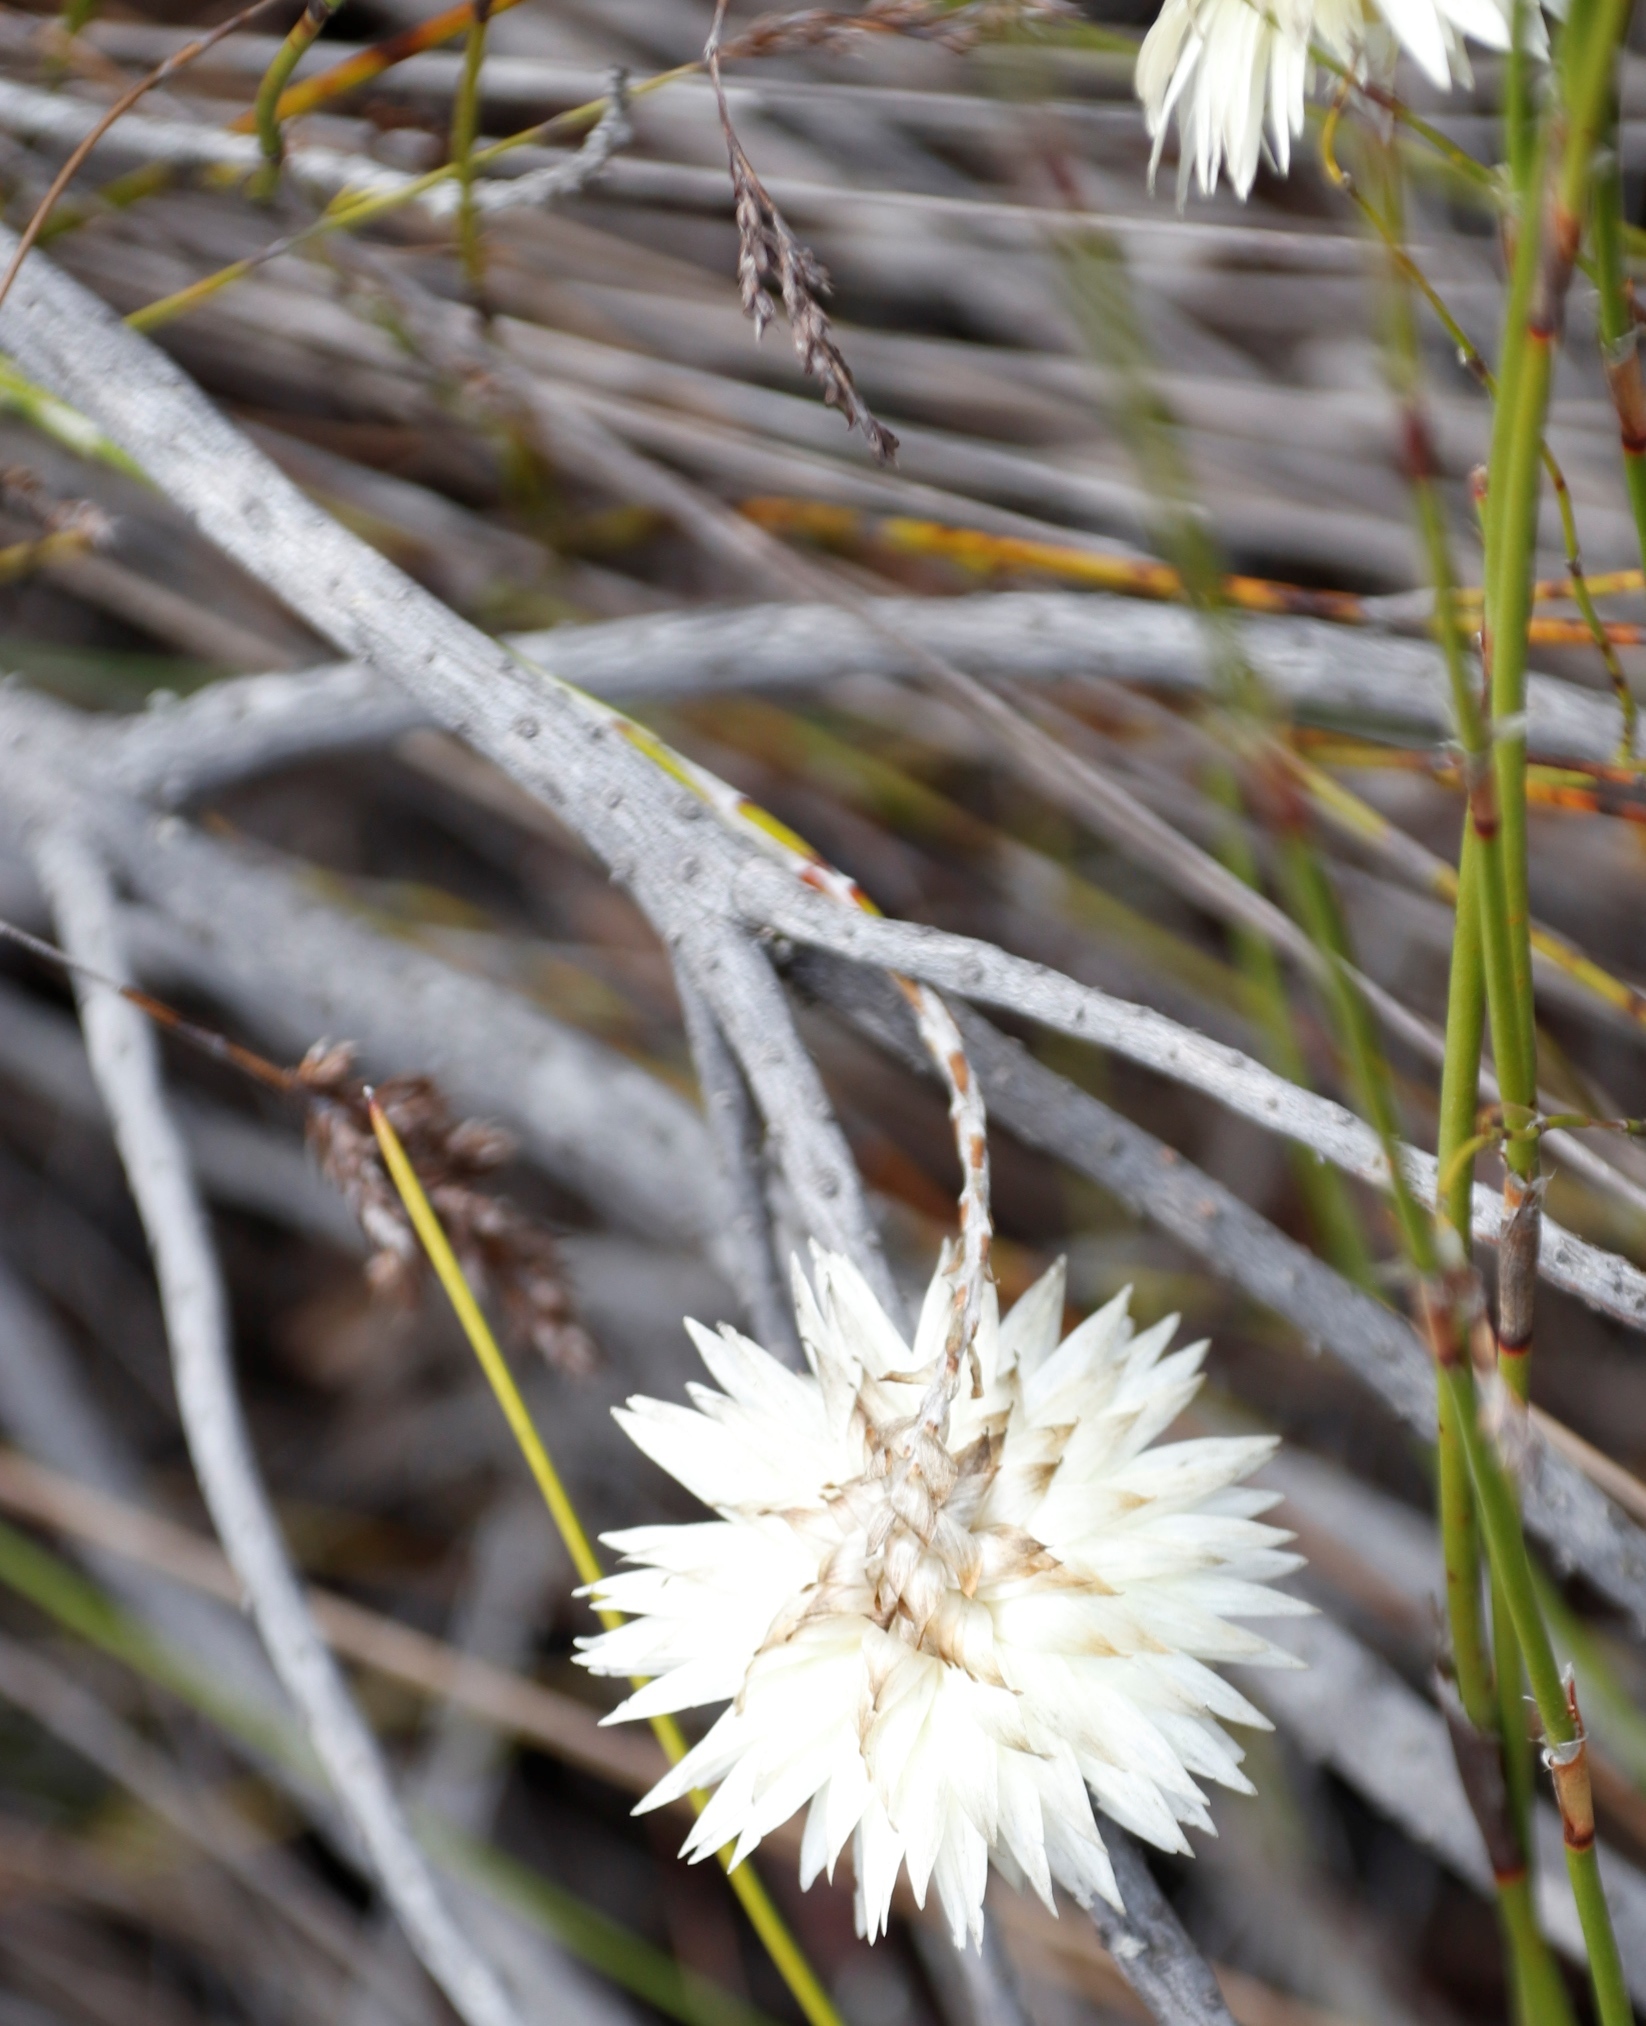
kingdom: Plantae
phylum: Tracheophyta
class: Magnoliopsida
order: Asterales
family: Asteraceae
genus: Edmondia
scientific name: Edmondia sesamoides
